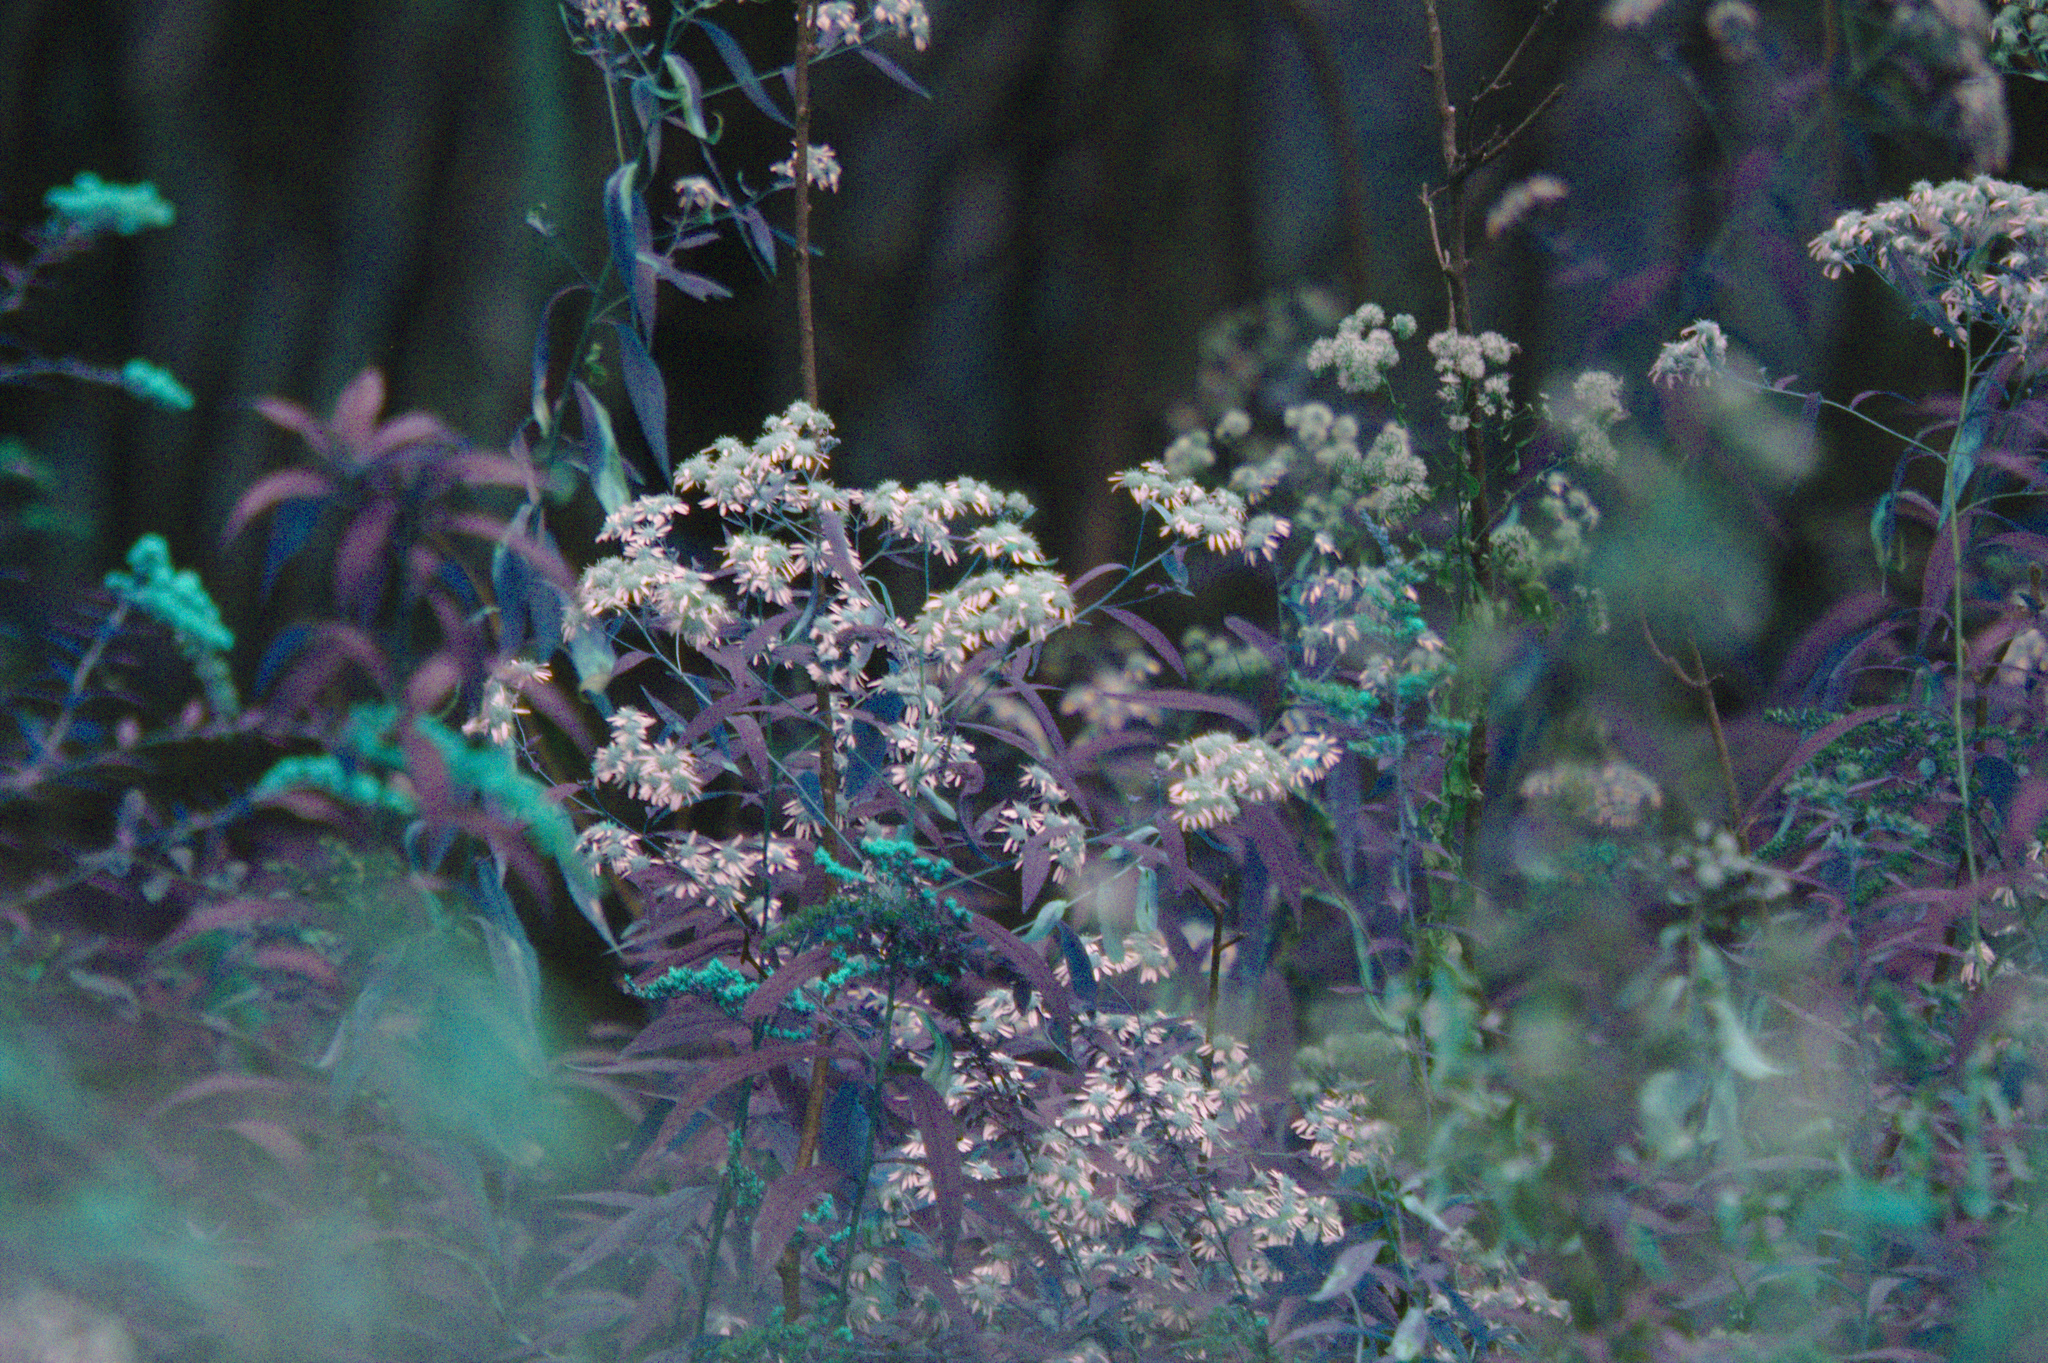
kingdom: Plantae
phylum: Tracheophyta
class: Magnoliopsida
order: Asterales
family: Asteraceae
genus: Doellingeria
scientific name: Doellingeria umbellata
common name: Flat-top white aster
